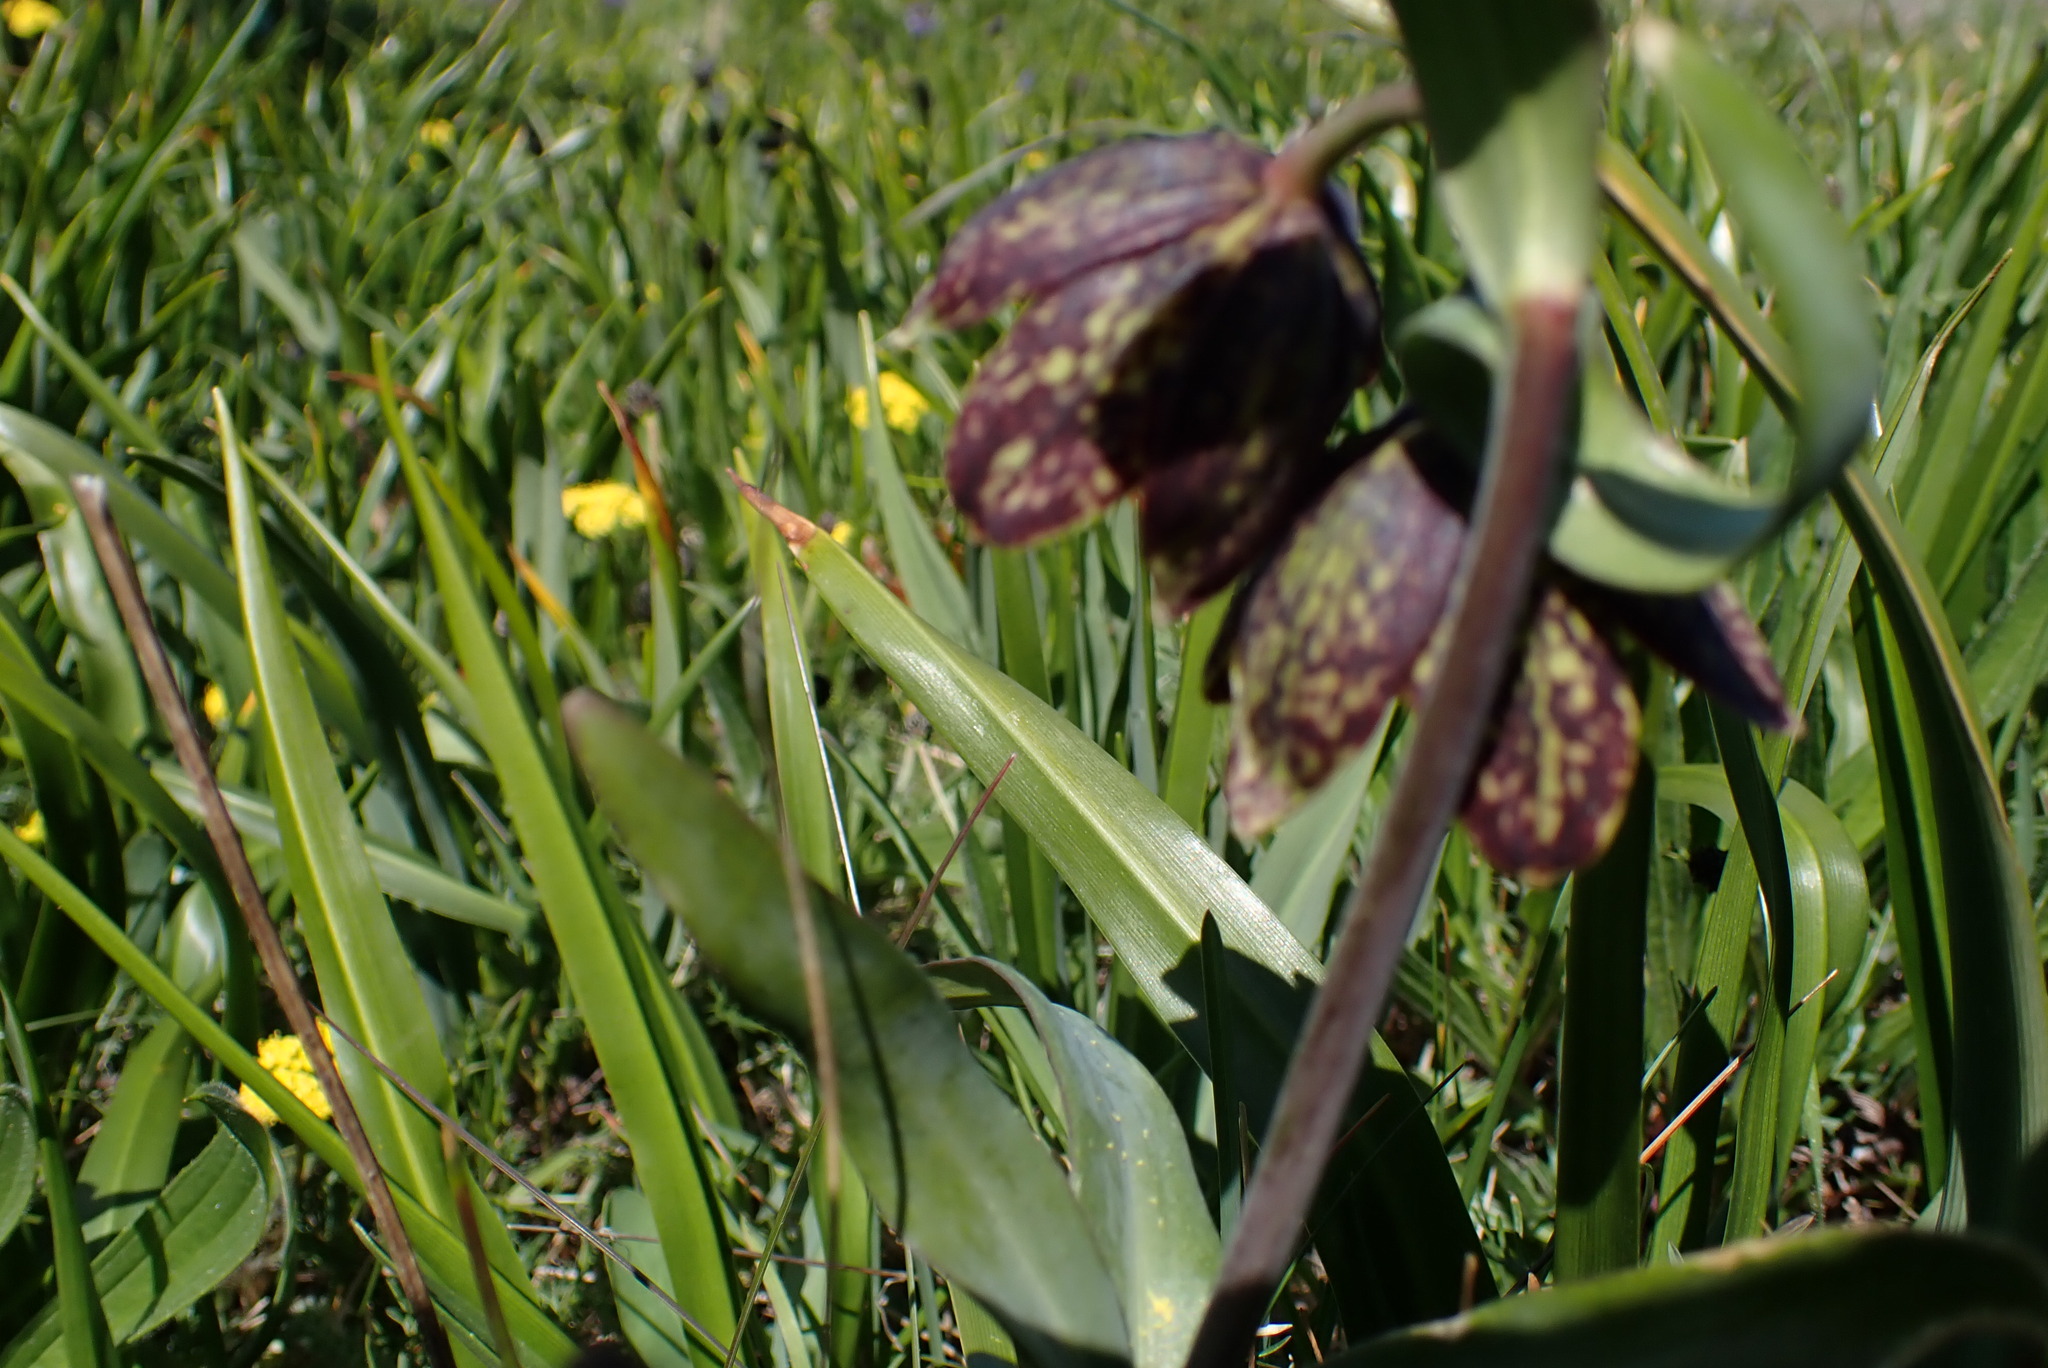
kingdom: Plantae
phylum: Tracheophyta
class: Liliopsida
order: Liliales
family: Liliaceae
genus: Fritillaria
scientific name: Fritillaria affinis
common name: Ojai fritillary
